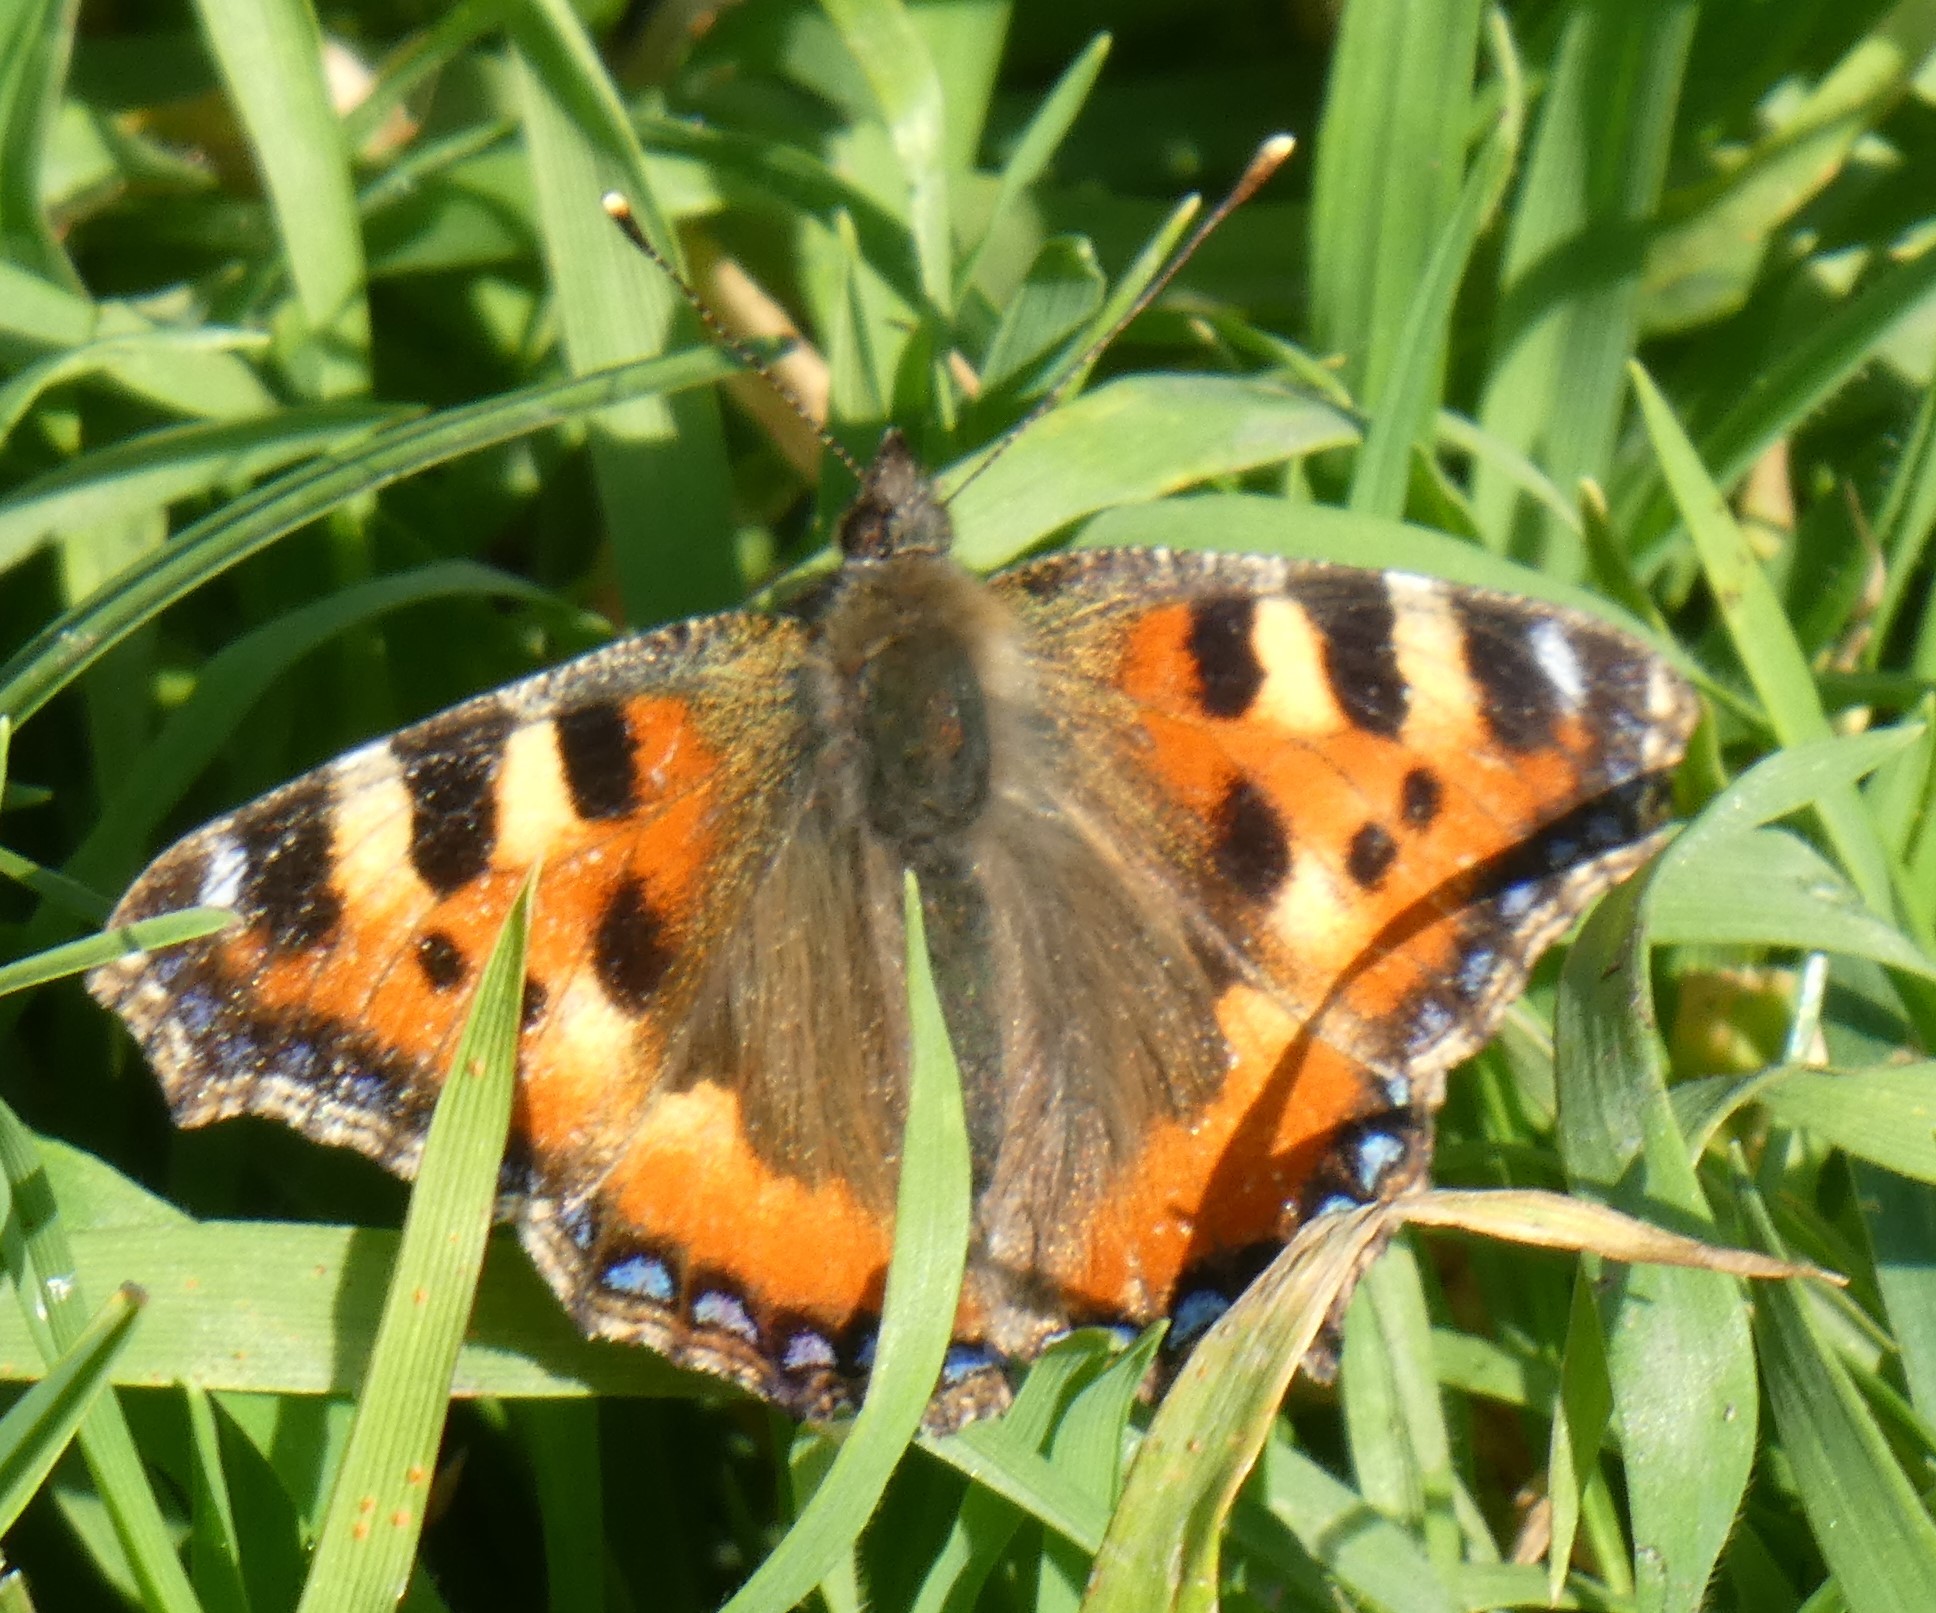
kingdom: Animalia
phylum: Arthropoda
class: Insecta
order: Lepidoptera
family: Nymphalidae
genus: Aglais
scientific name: Aglais urticae
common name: Small tortoiseshell
